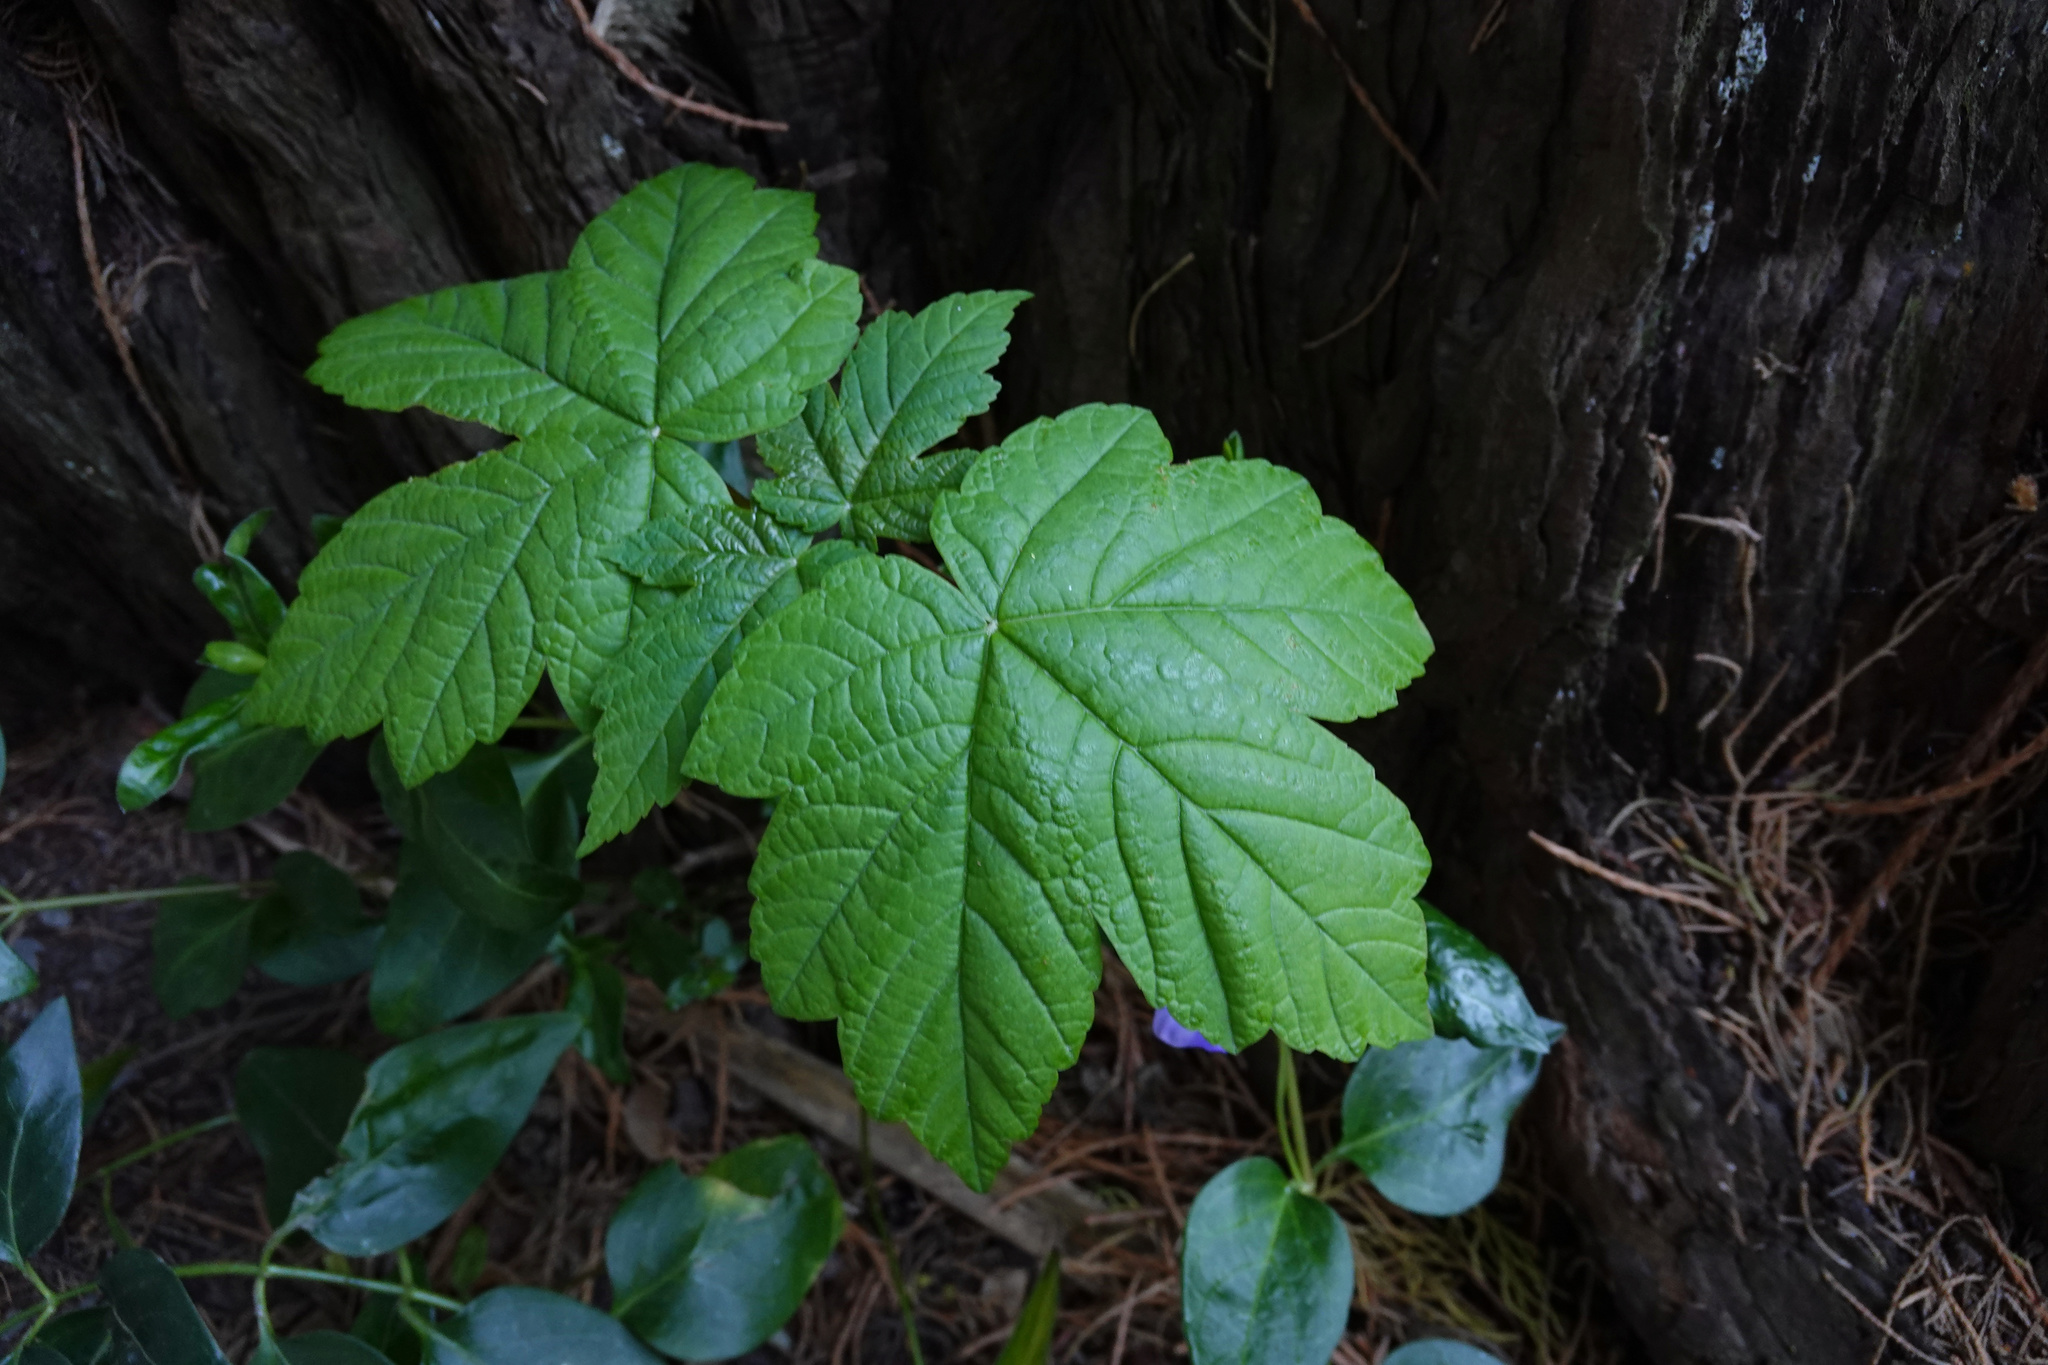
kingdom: Plantae
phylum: Tracheophyta
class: Magnoliopsida
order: Sapindales
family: Sapindaceae
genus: Acer
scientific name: Acer pseudoplatanus
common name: Sycamore
